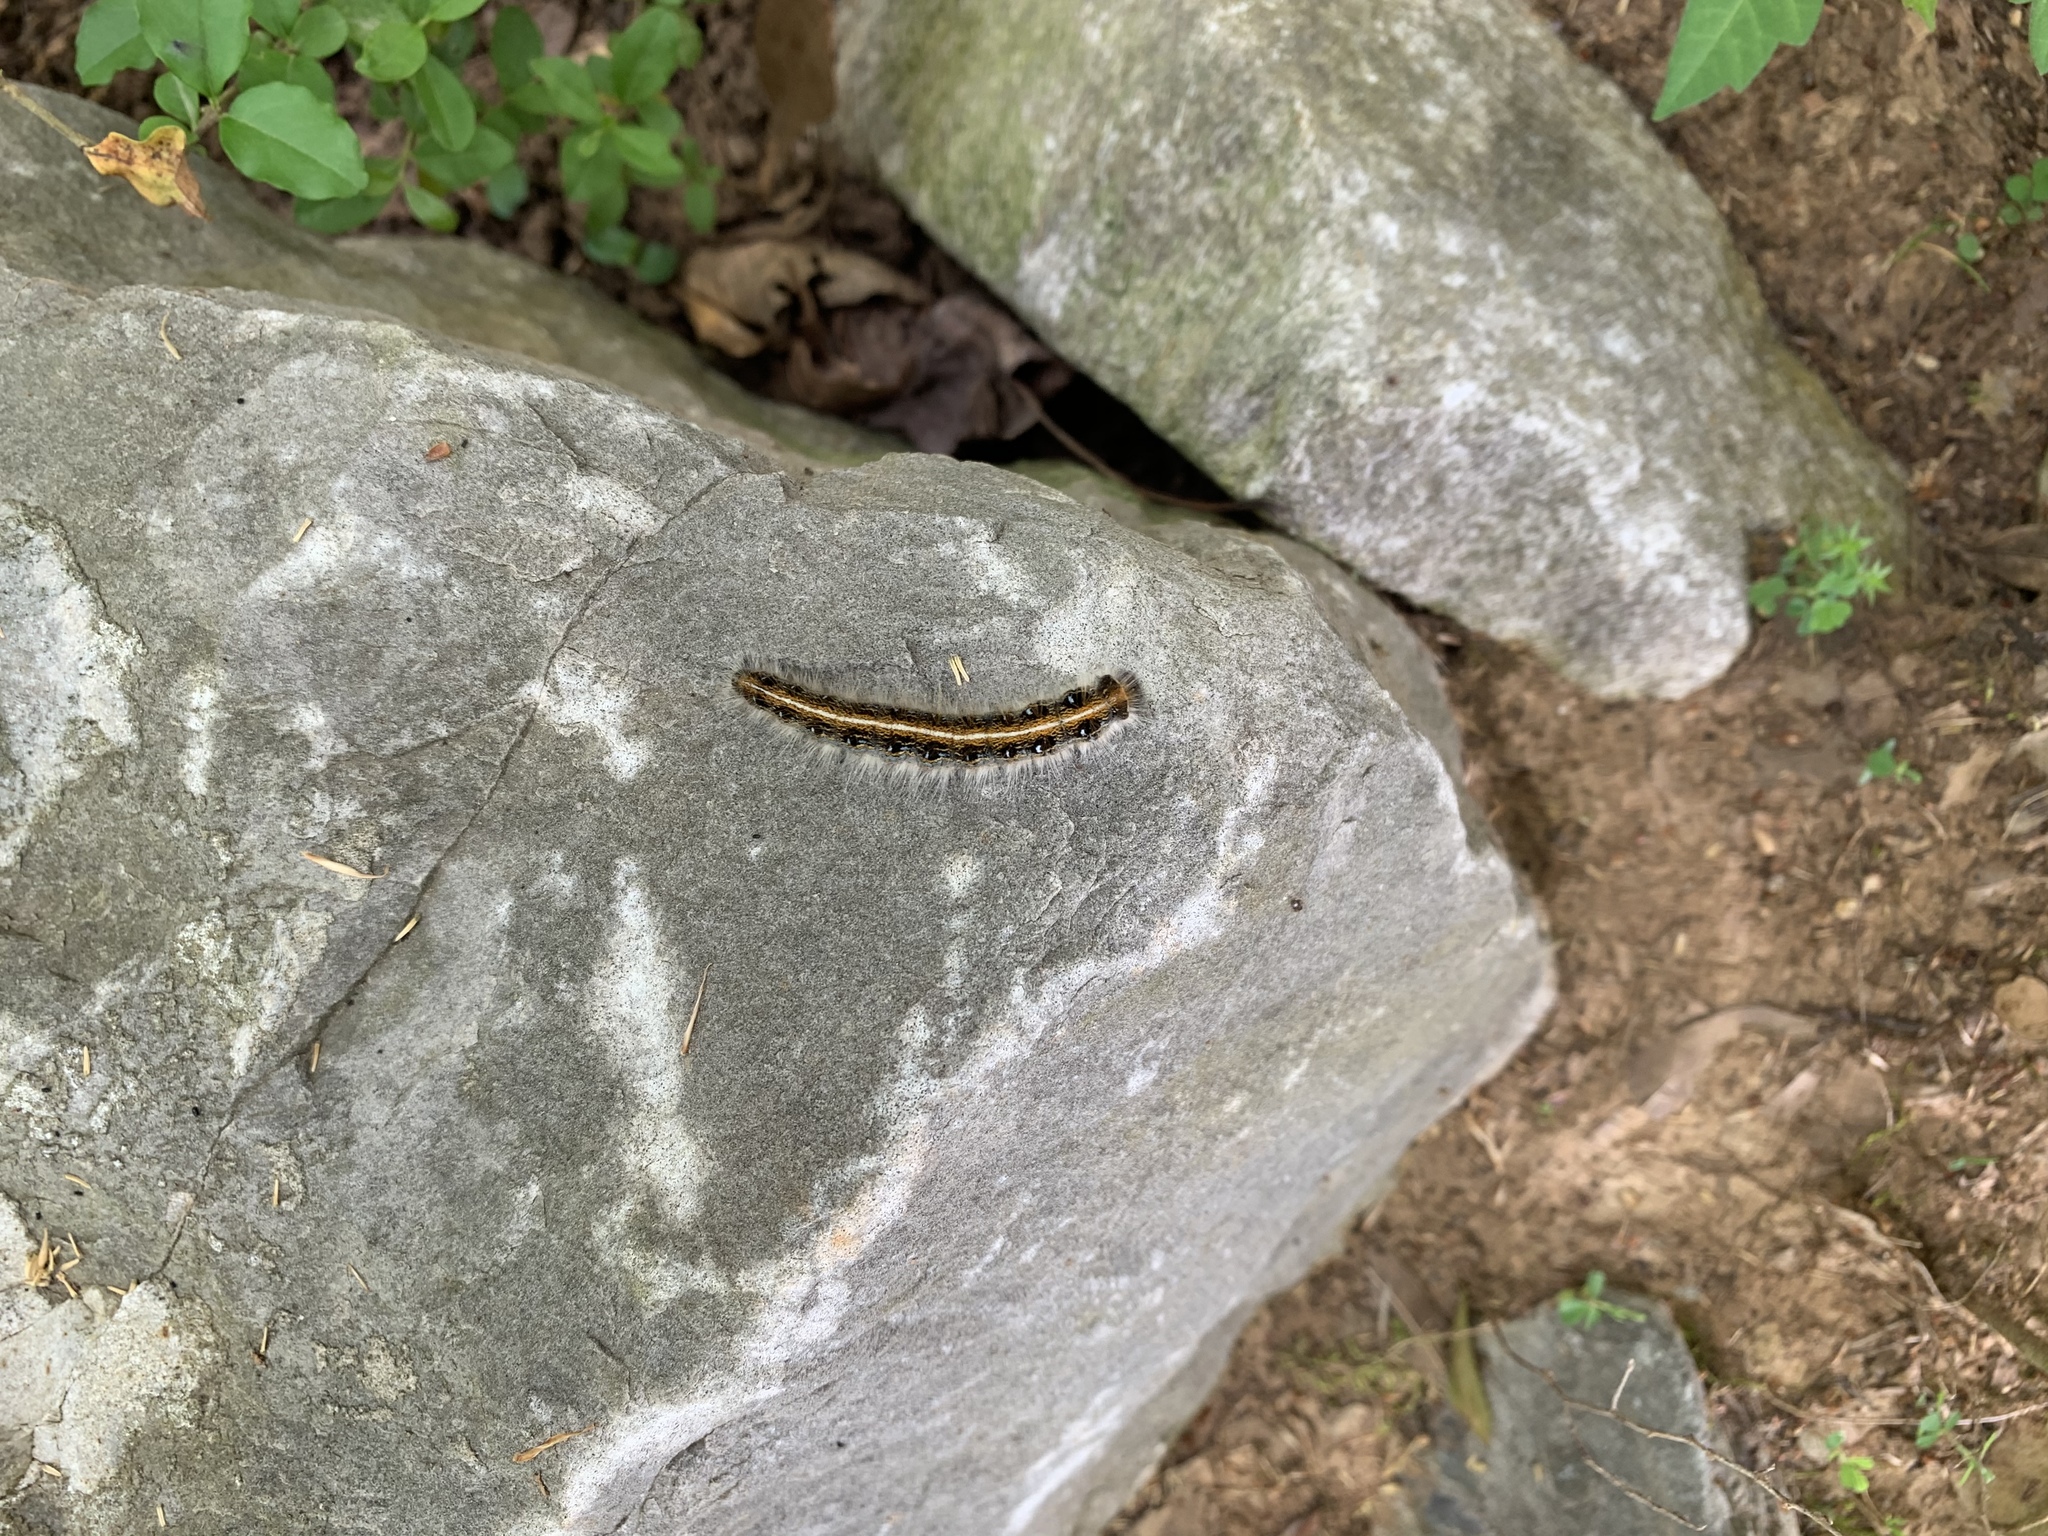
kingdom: Animalia
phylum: Arthropoda
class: Insecta
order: Lepidoptera
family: Lasiocampidae
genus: Malacosoma
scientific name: Malacosoma americana
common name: Eastern tent caterpillar moth
